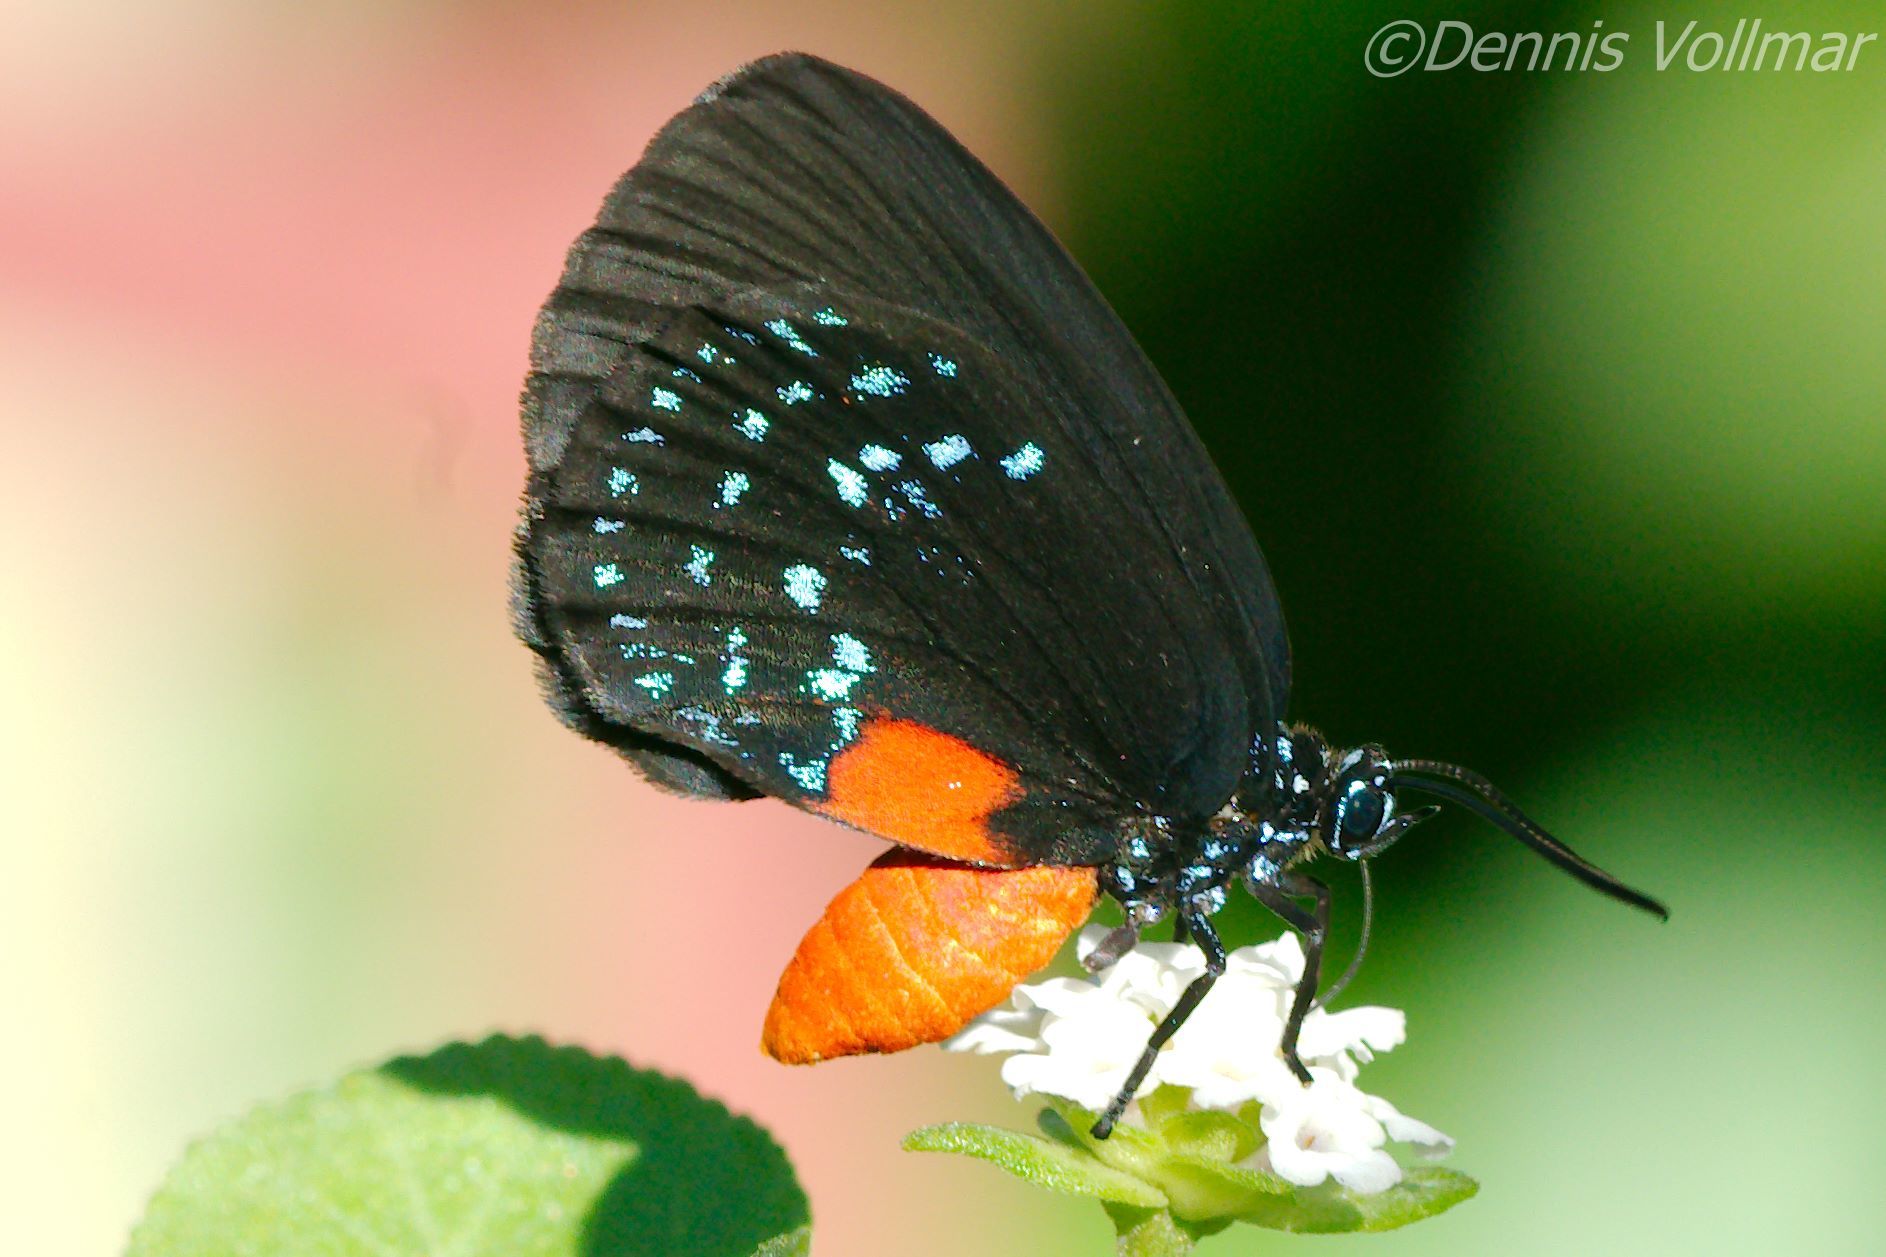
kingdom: Animalia
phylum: Arthropoda
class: Insecta
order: Lepidoptera
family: Lycaenidae
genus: Eumaeus
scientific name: Eumaeus atala
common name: Atala
